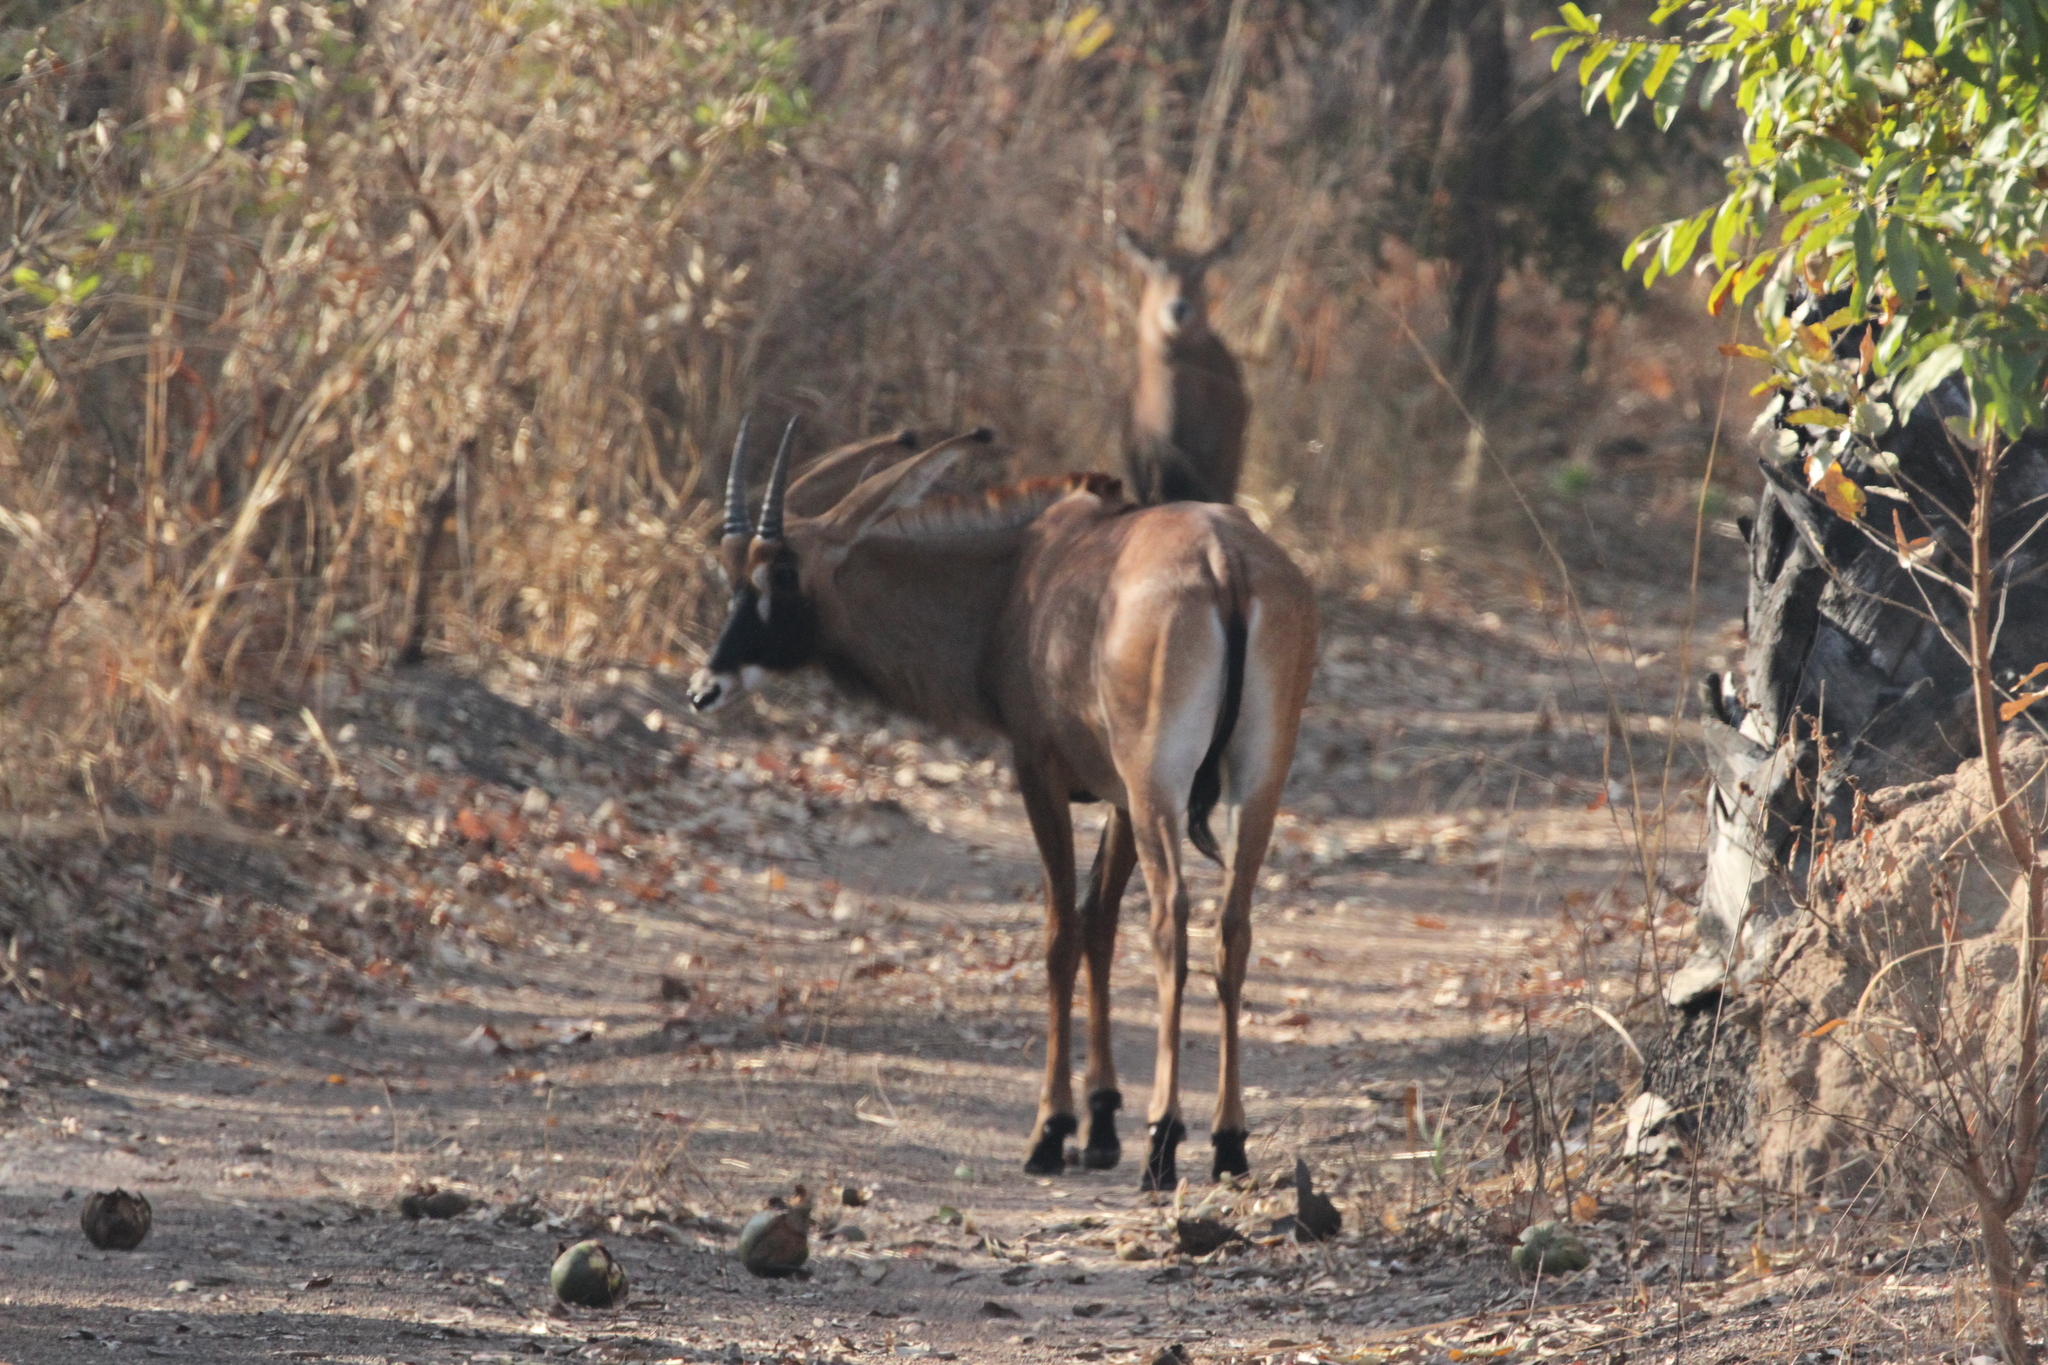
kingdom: Animalia
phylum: Chordata
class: Mammalia
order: Artiodactyla
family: Bovidae
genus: Hippotragus
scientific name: Hippotragus equinus
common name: Roan antelope
